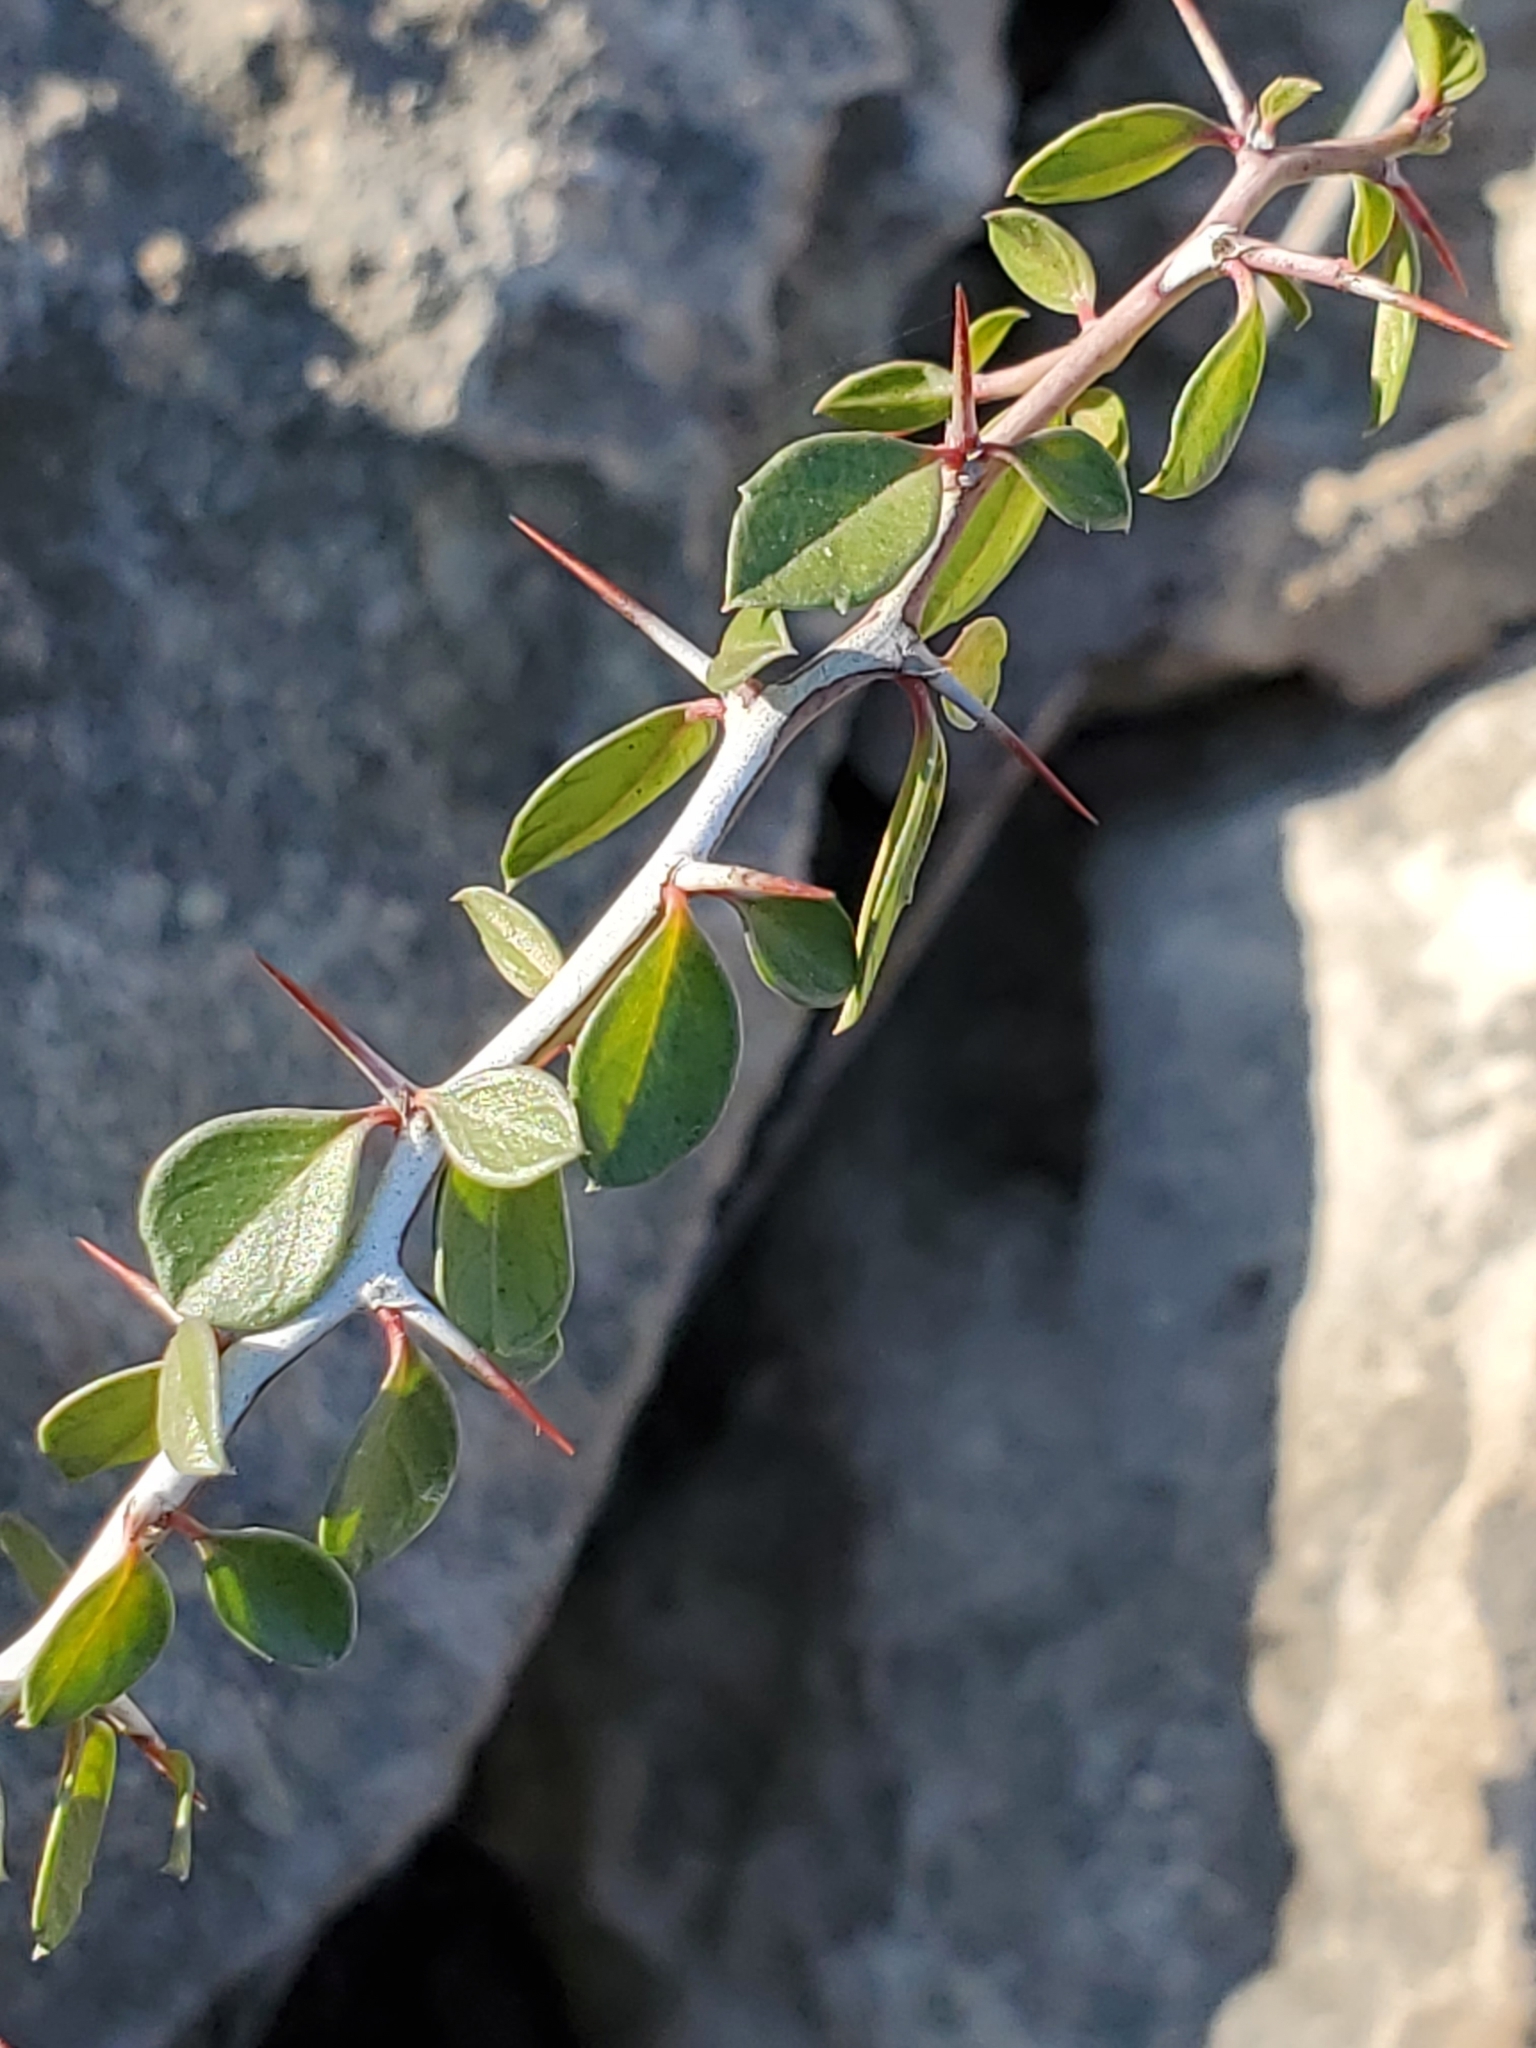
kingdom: Plantae
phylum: Tracheophyta
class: Magnoliopsida
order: Rosales
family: Rhamnaceae
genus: Condalia
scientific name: Condalia viridis
